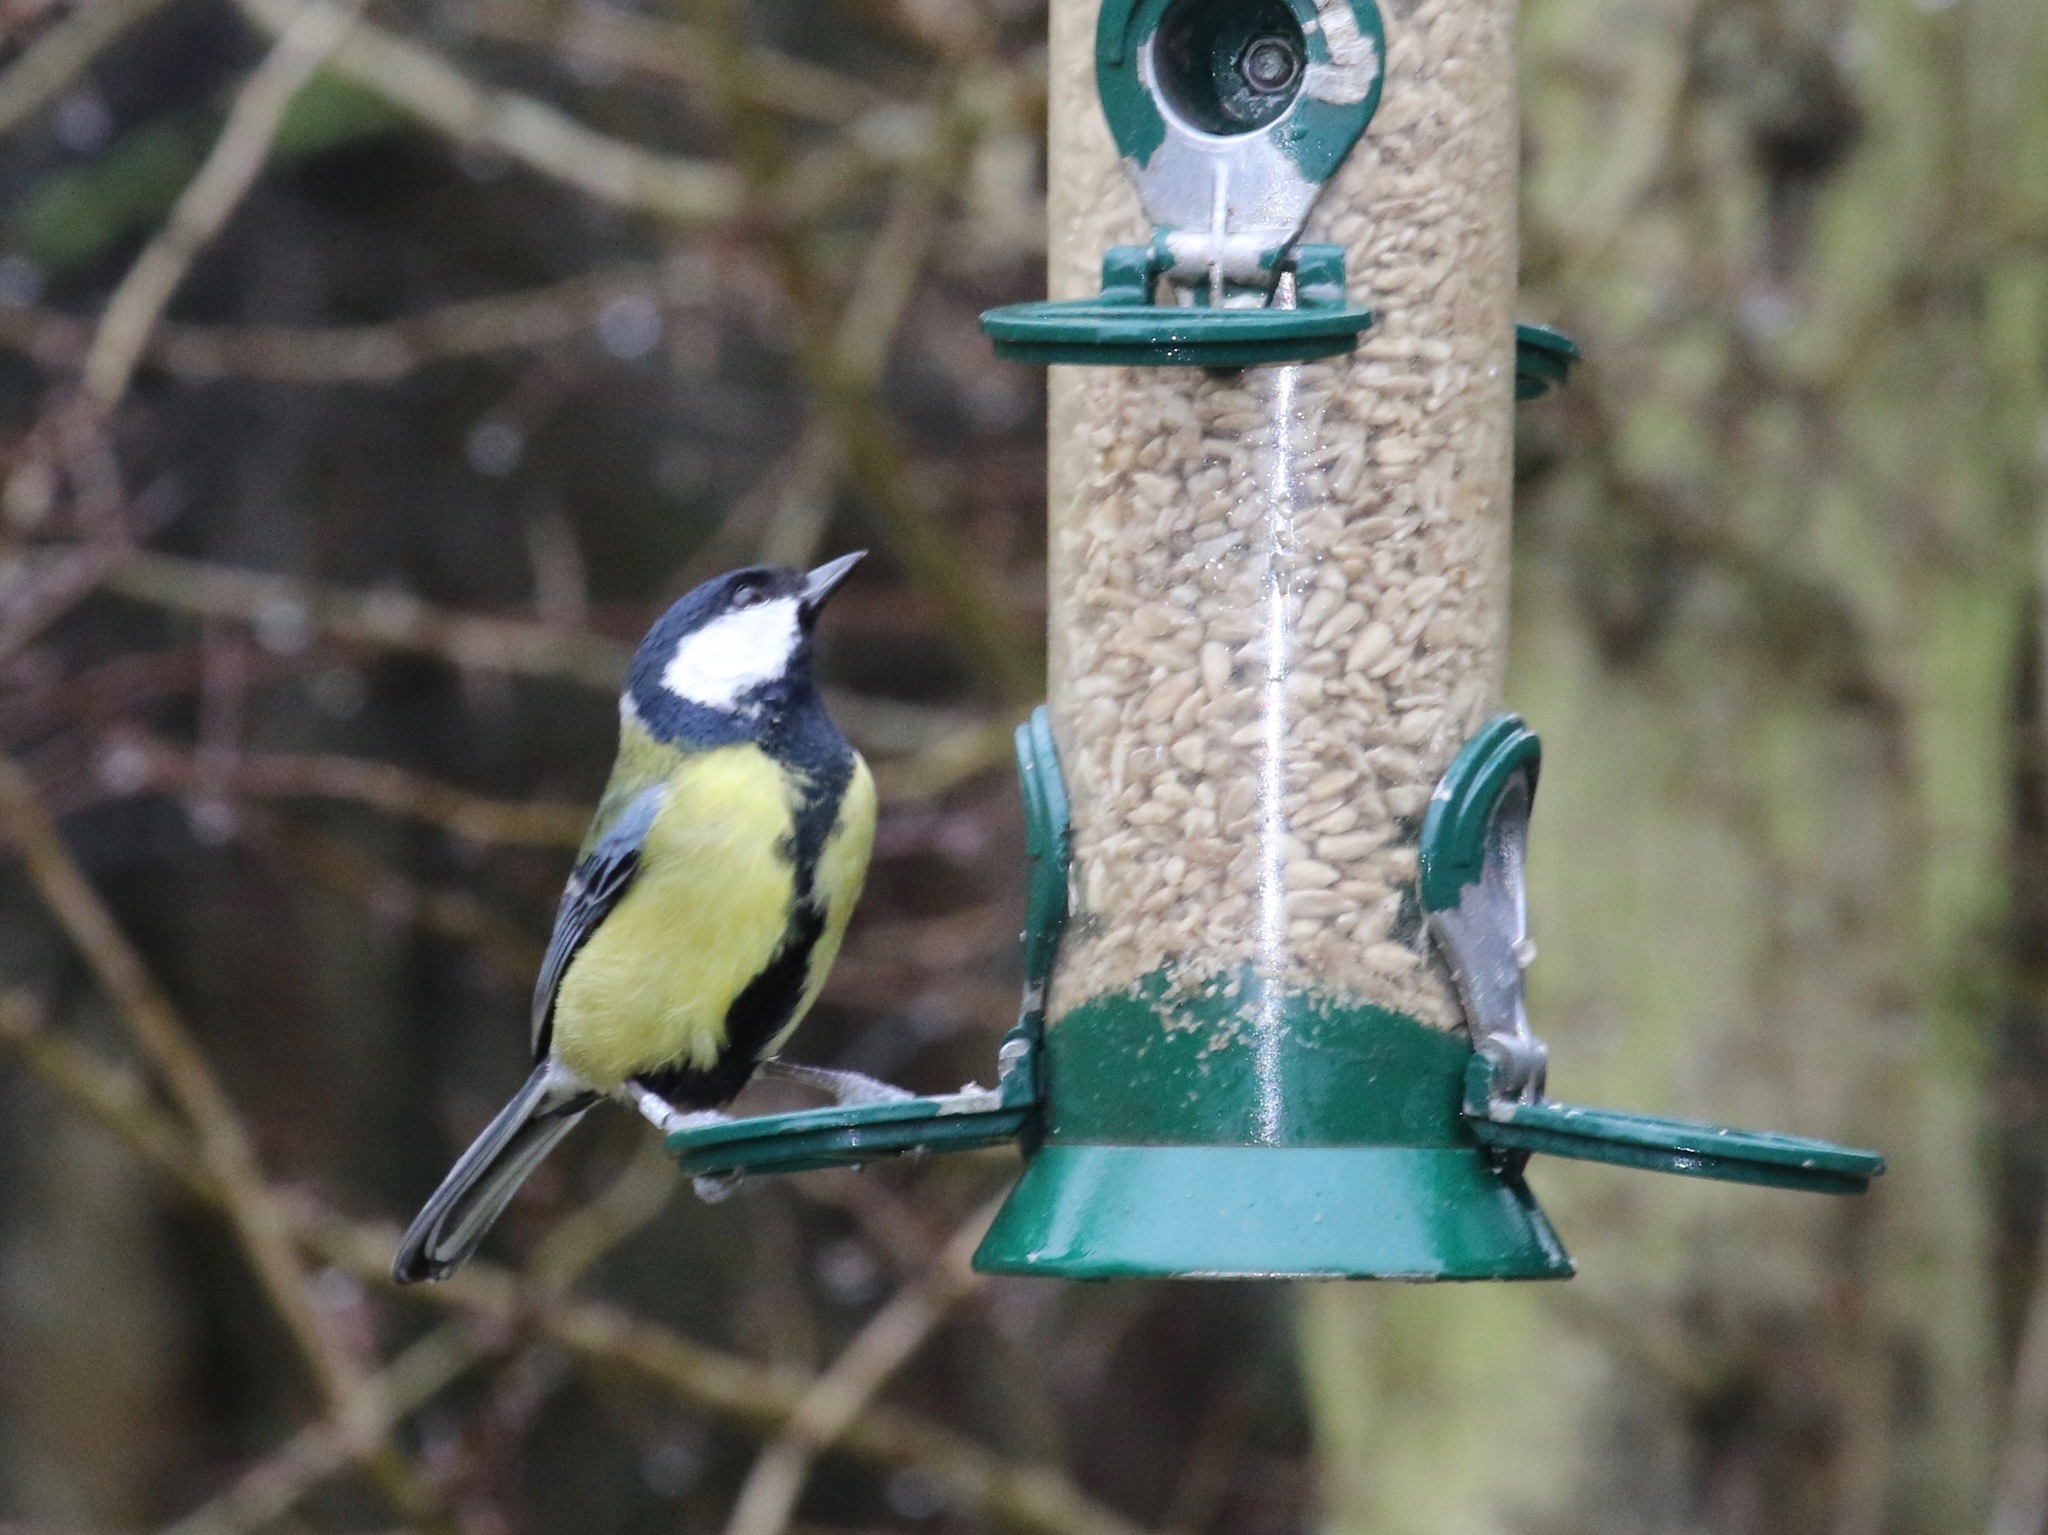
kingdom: Animalia
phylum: Chordata
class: Aves
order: Passeriformes
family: Paridae
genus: Parus
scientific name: Parus major
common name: Great tit
